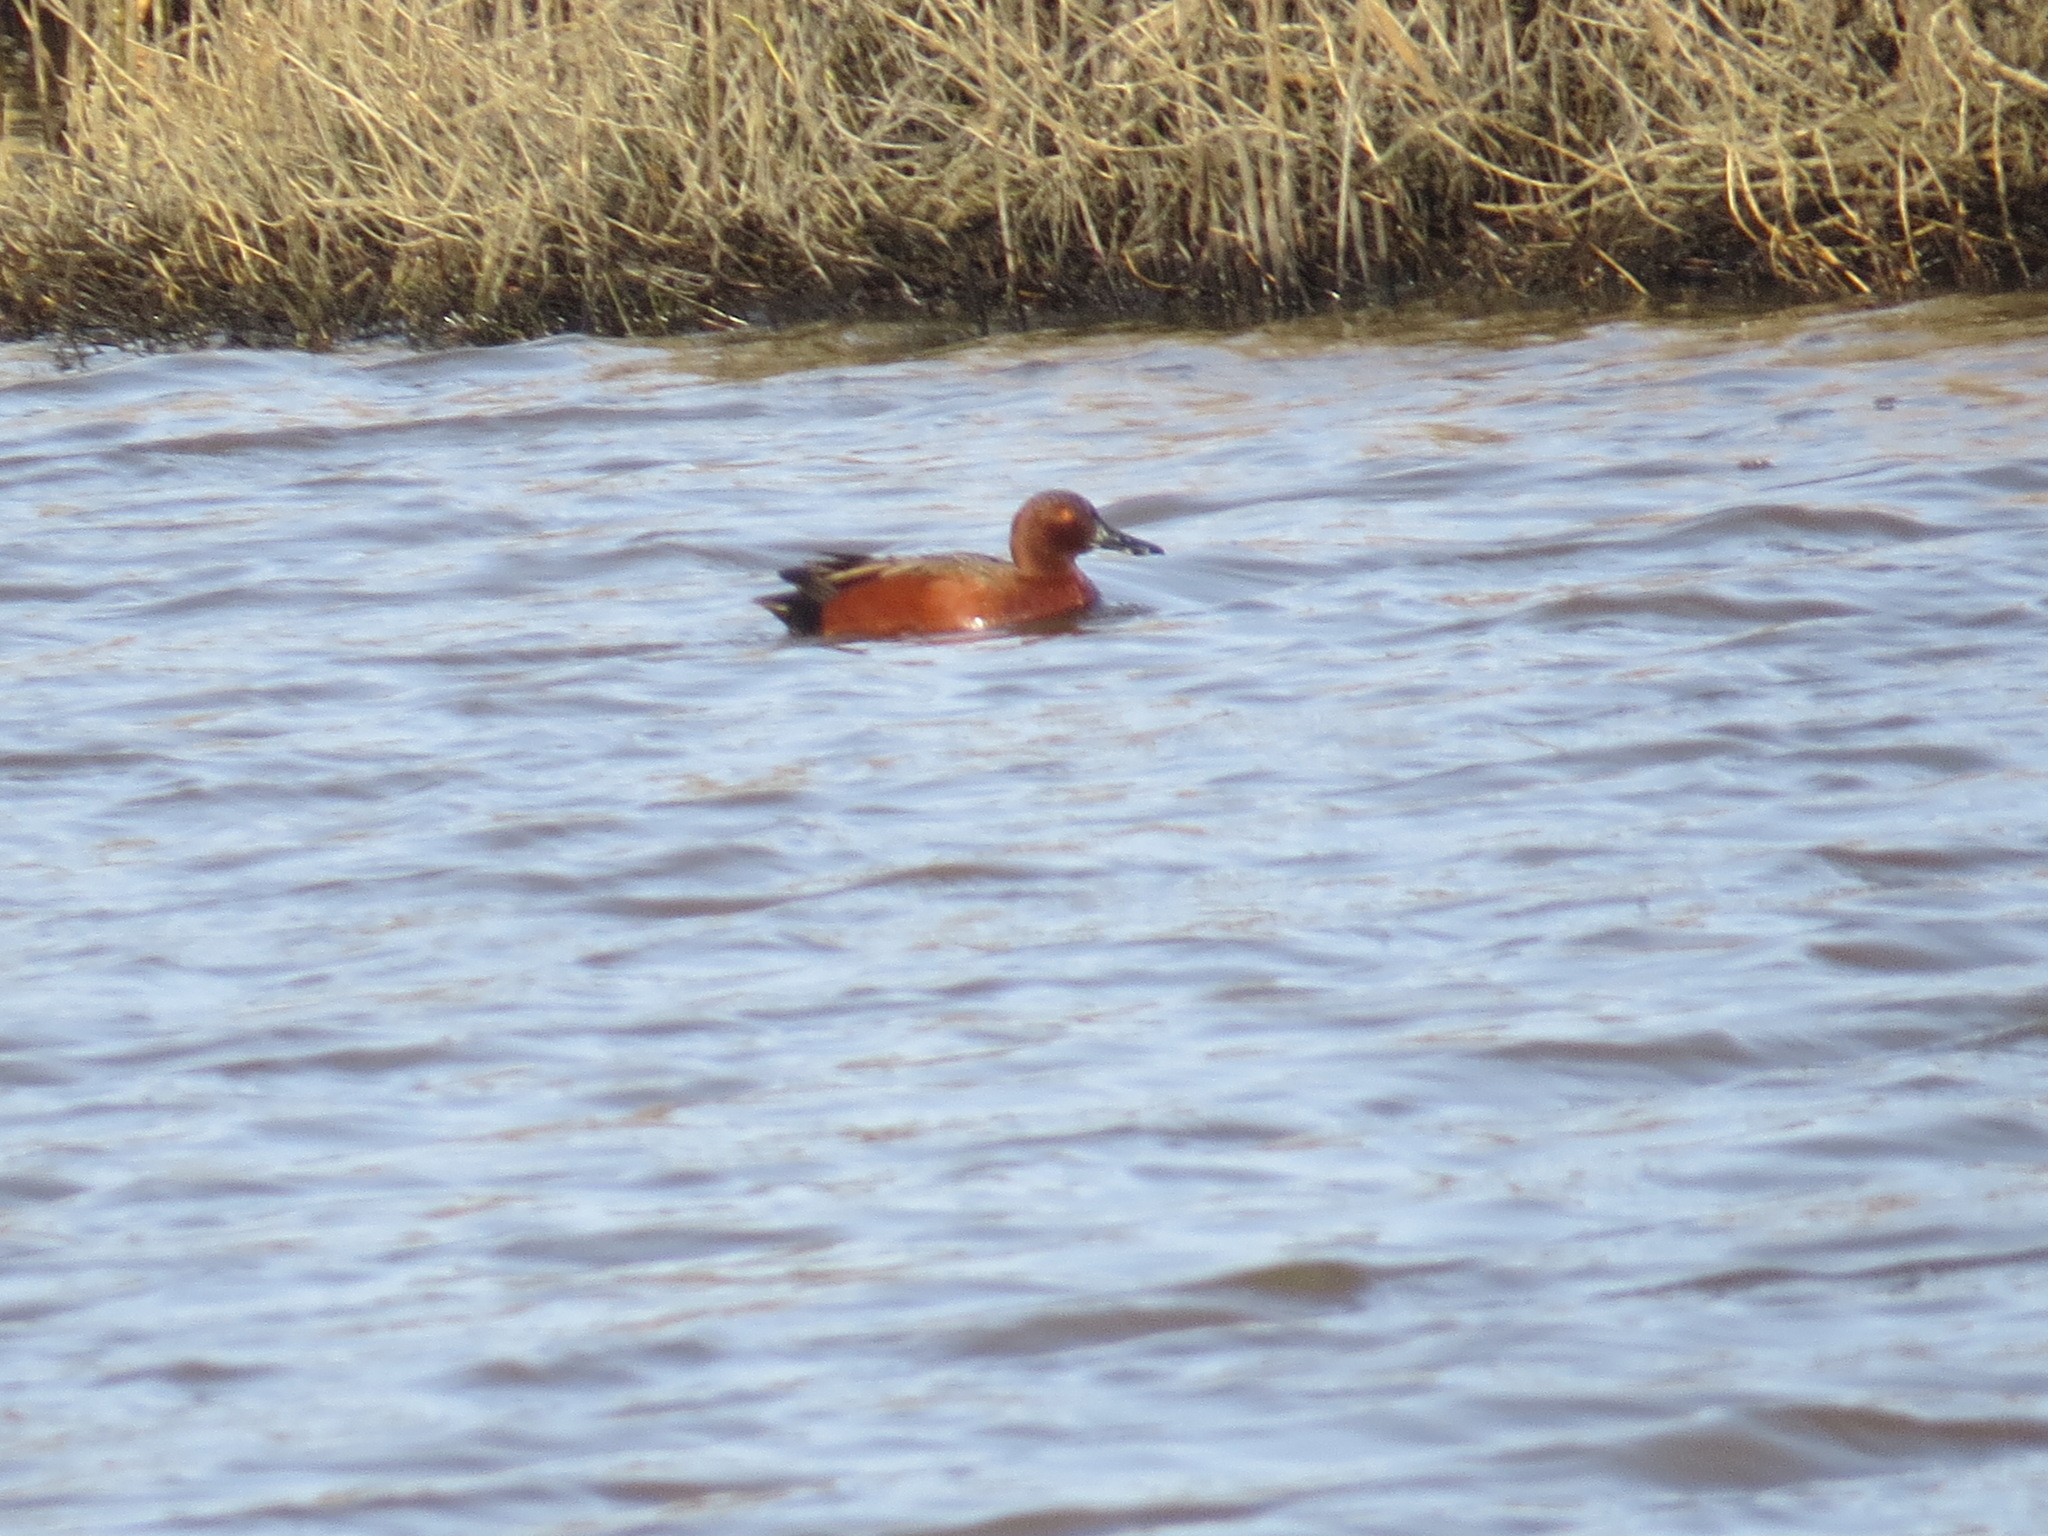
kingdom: Animalia
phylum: Chordata
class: Aves
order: Anseriformes
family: Anatidae
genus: Spatula
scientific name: Spatula cyanoptera
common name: Cinnamon teal
